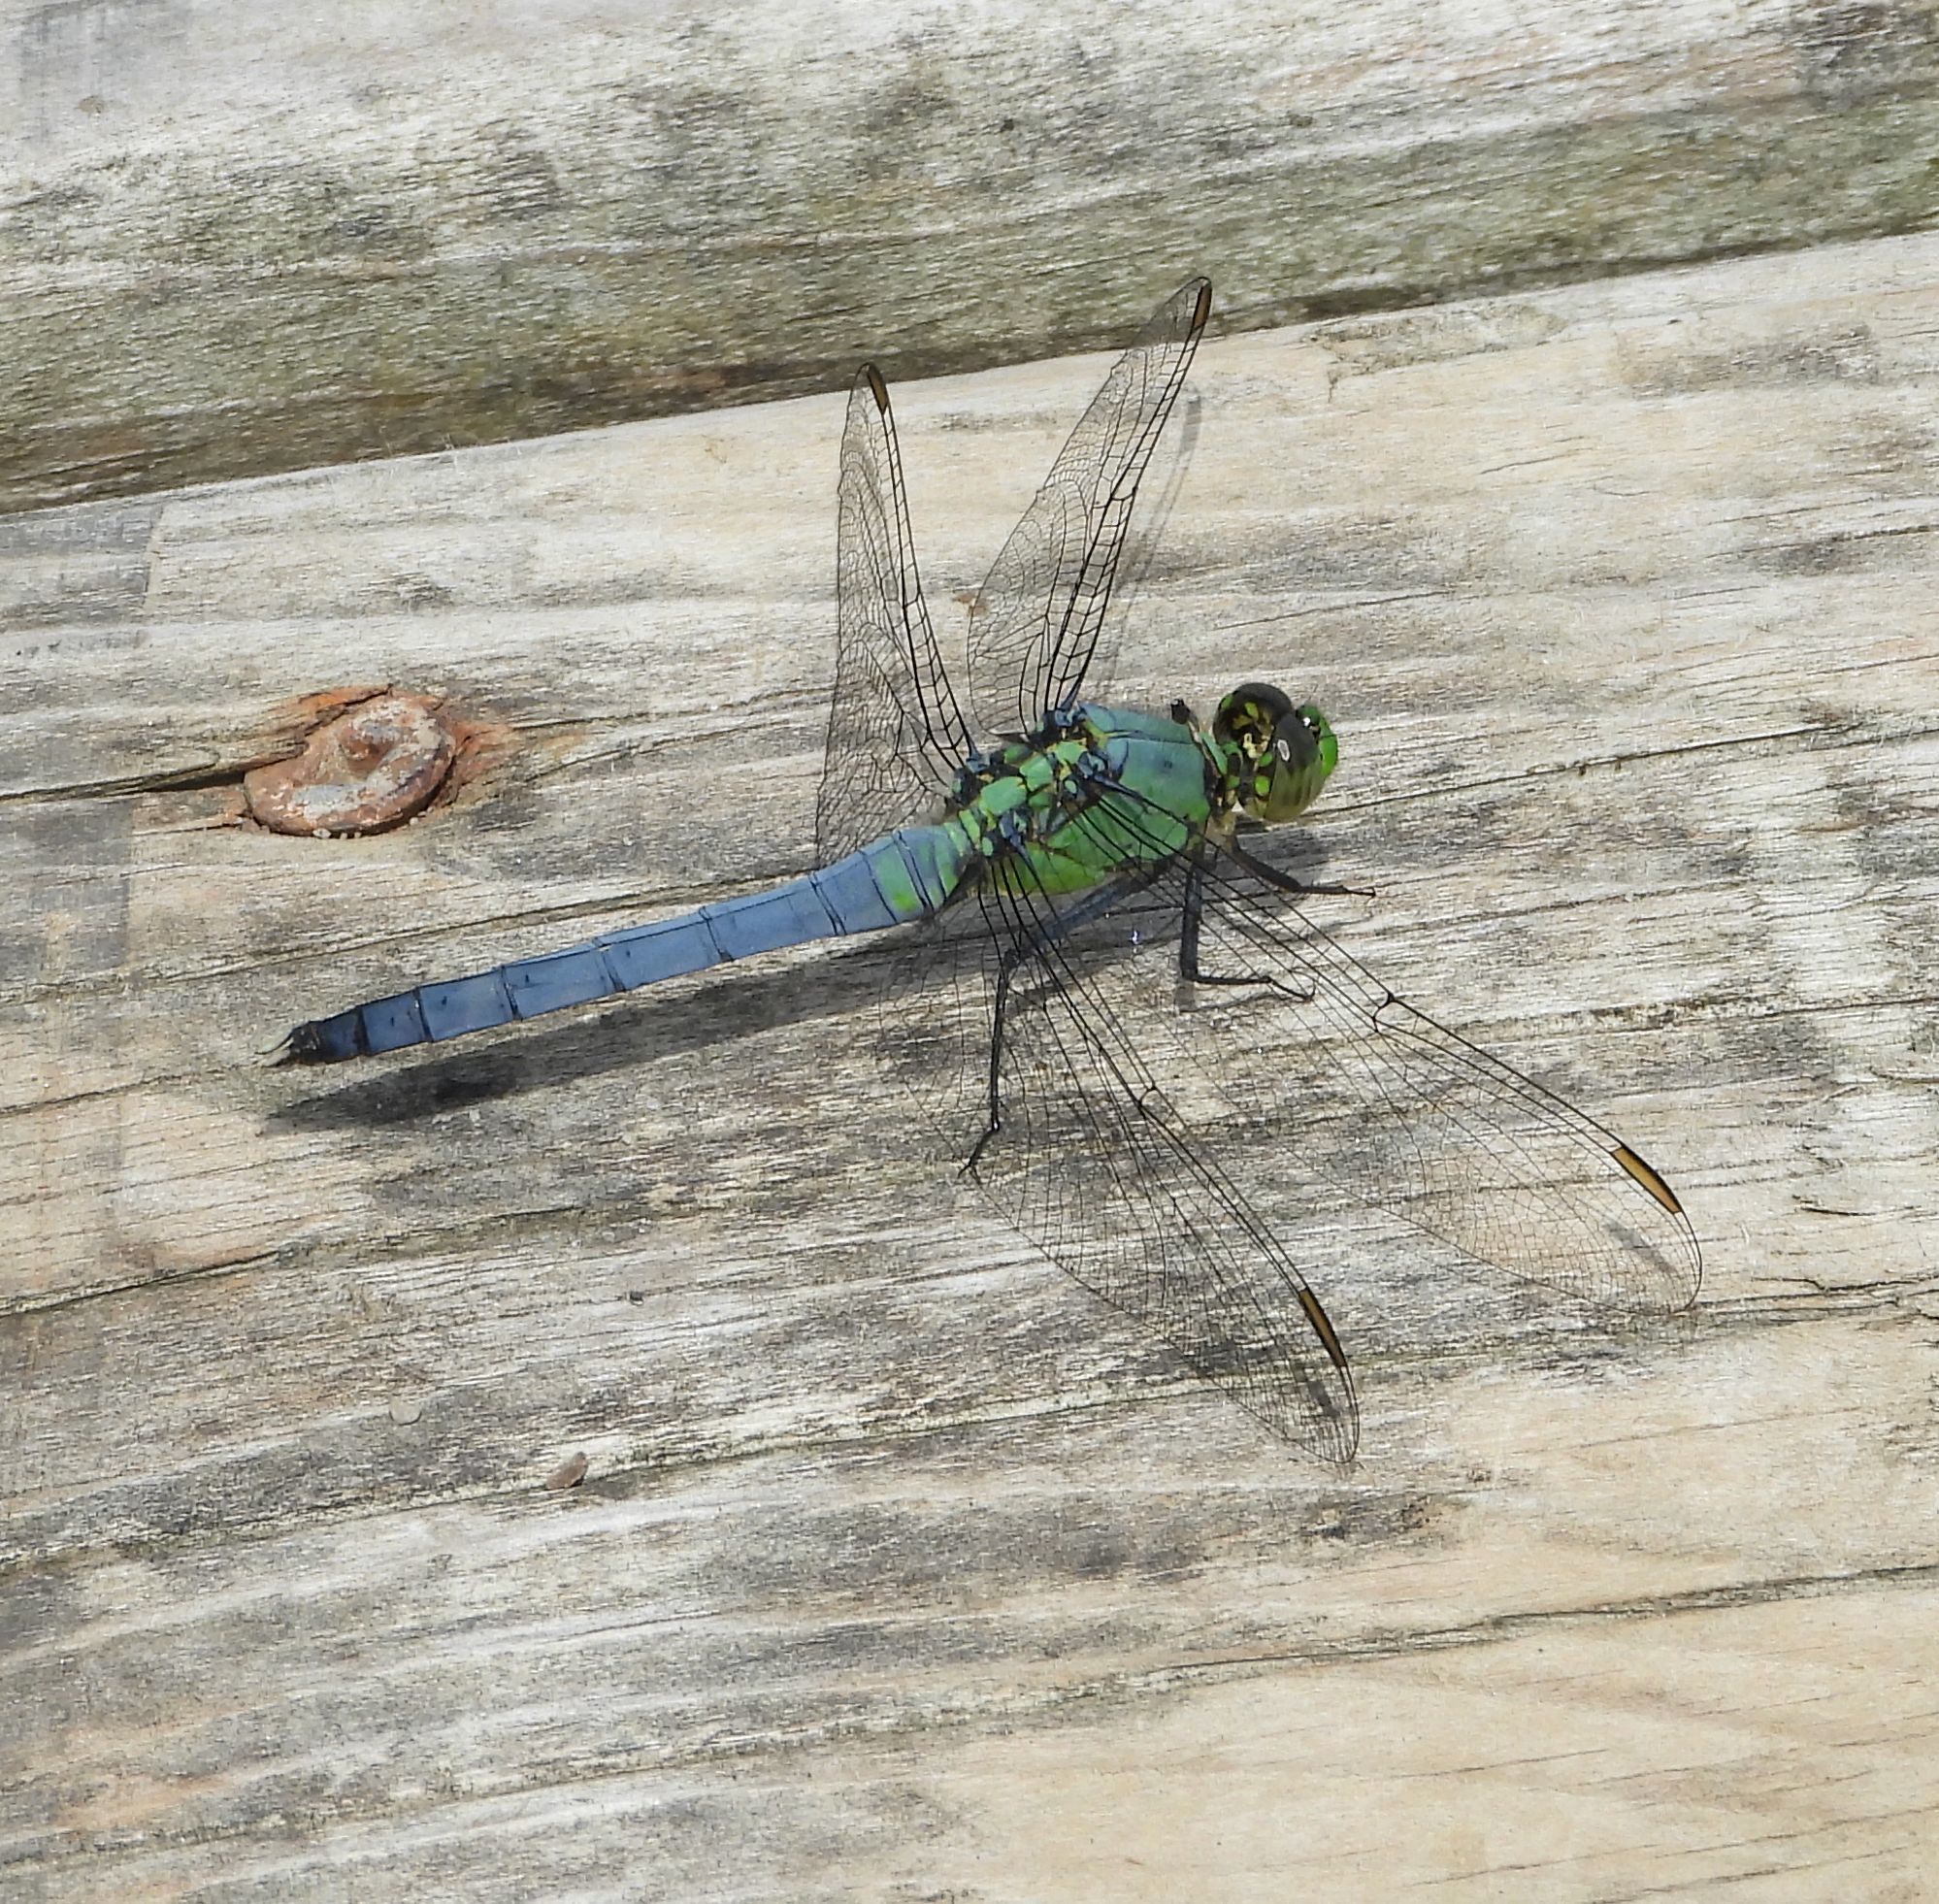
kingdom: Animalia
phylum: Arthropoda
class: Insecta
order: Odonata
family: Libellulidae
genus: Erythemis
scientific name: Erythemis simplicicollis
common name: Eastern pondhawk
